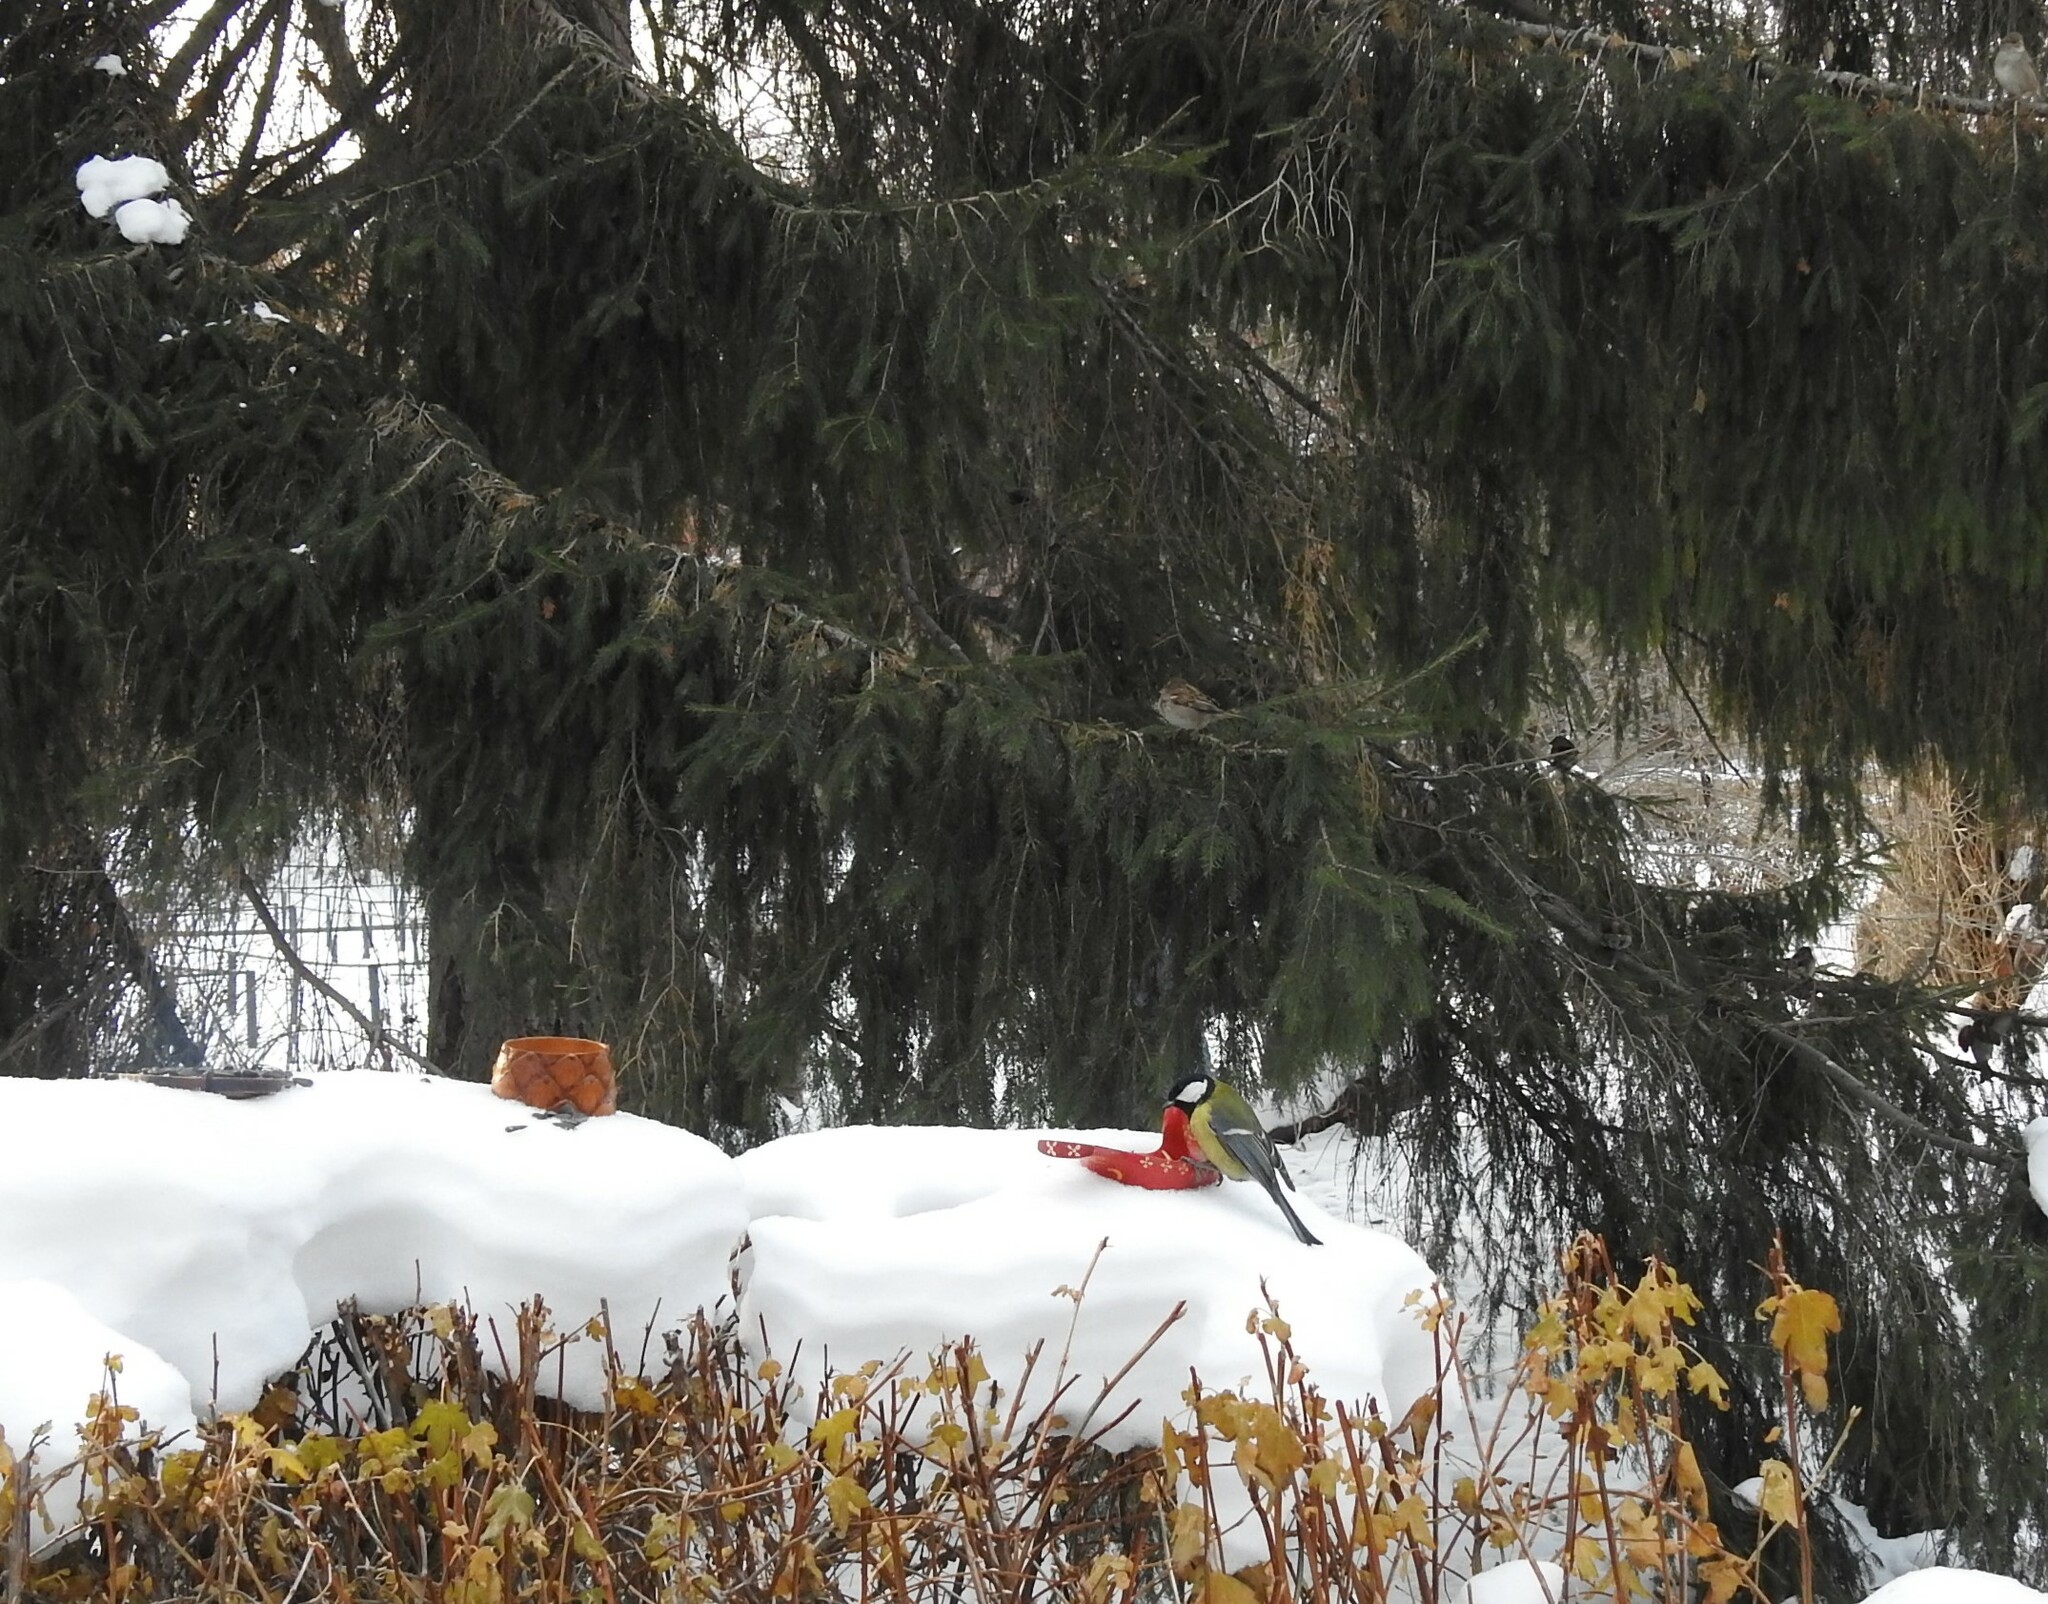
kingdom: Animalia
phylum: Chordata
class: Aves
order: Passeriformes
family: Paridae
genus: Parus
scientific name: Parus major
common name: Great tit
